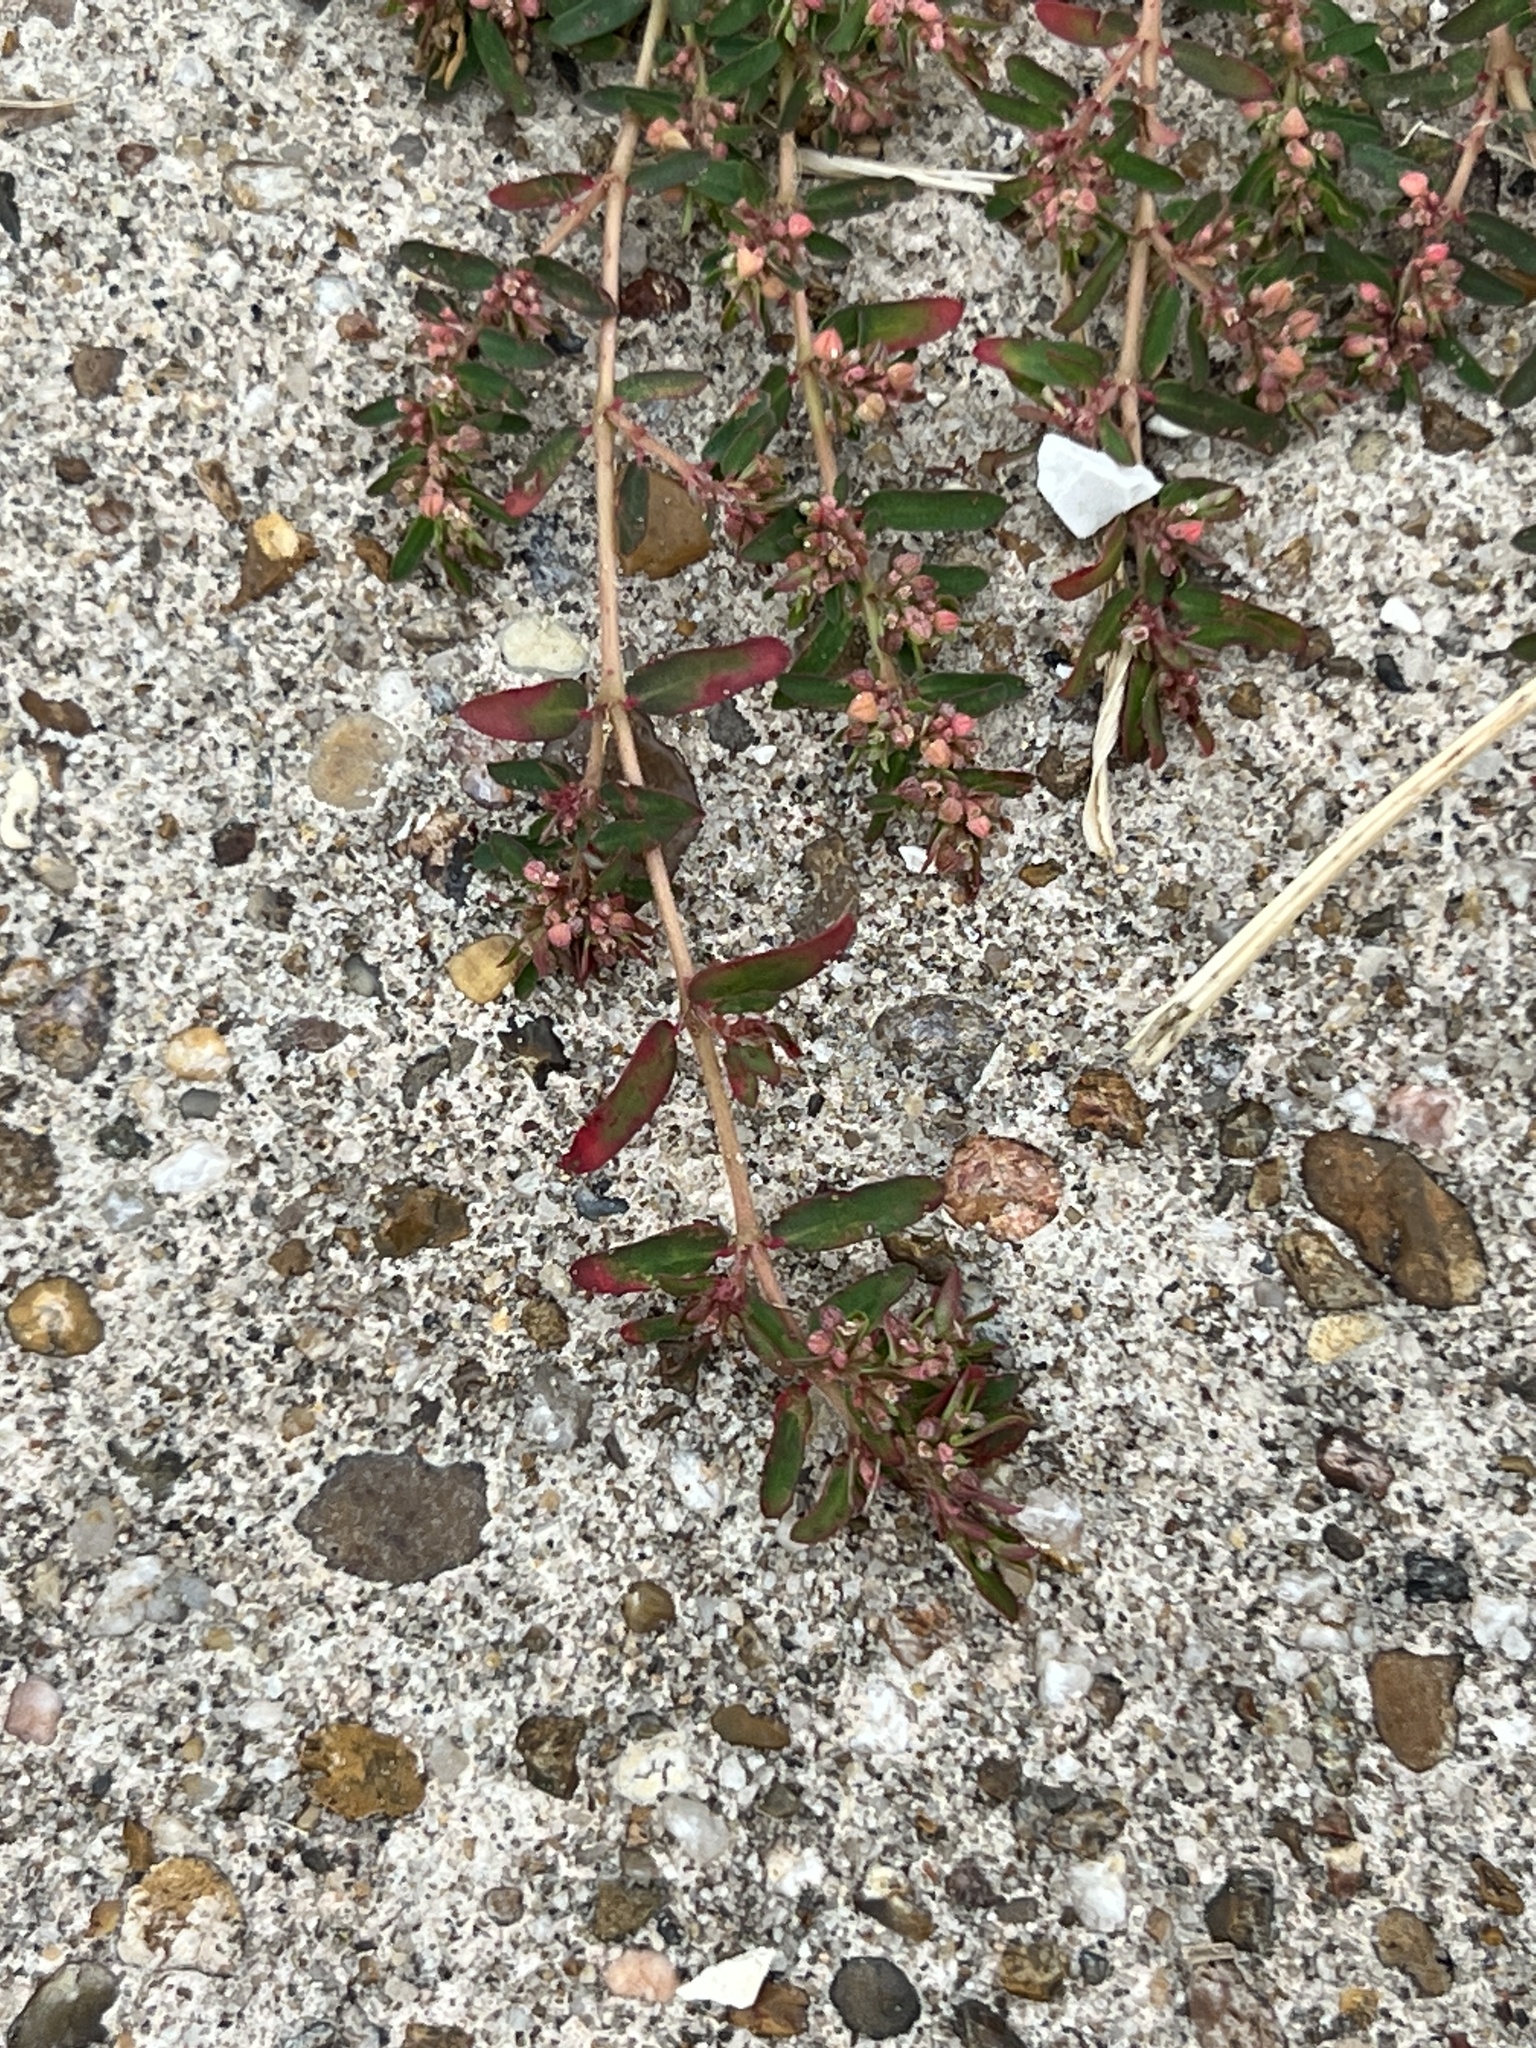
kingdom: Plantae
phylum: Tracheophyta
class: Magnoliopsida
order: Malpighiales
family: Euphorbiaceae
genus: Euphorbia
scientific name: Euphorbia maculata
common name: Spotted spurge
